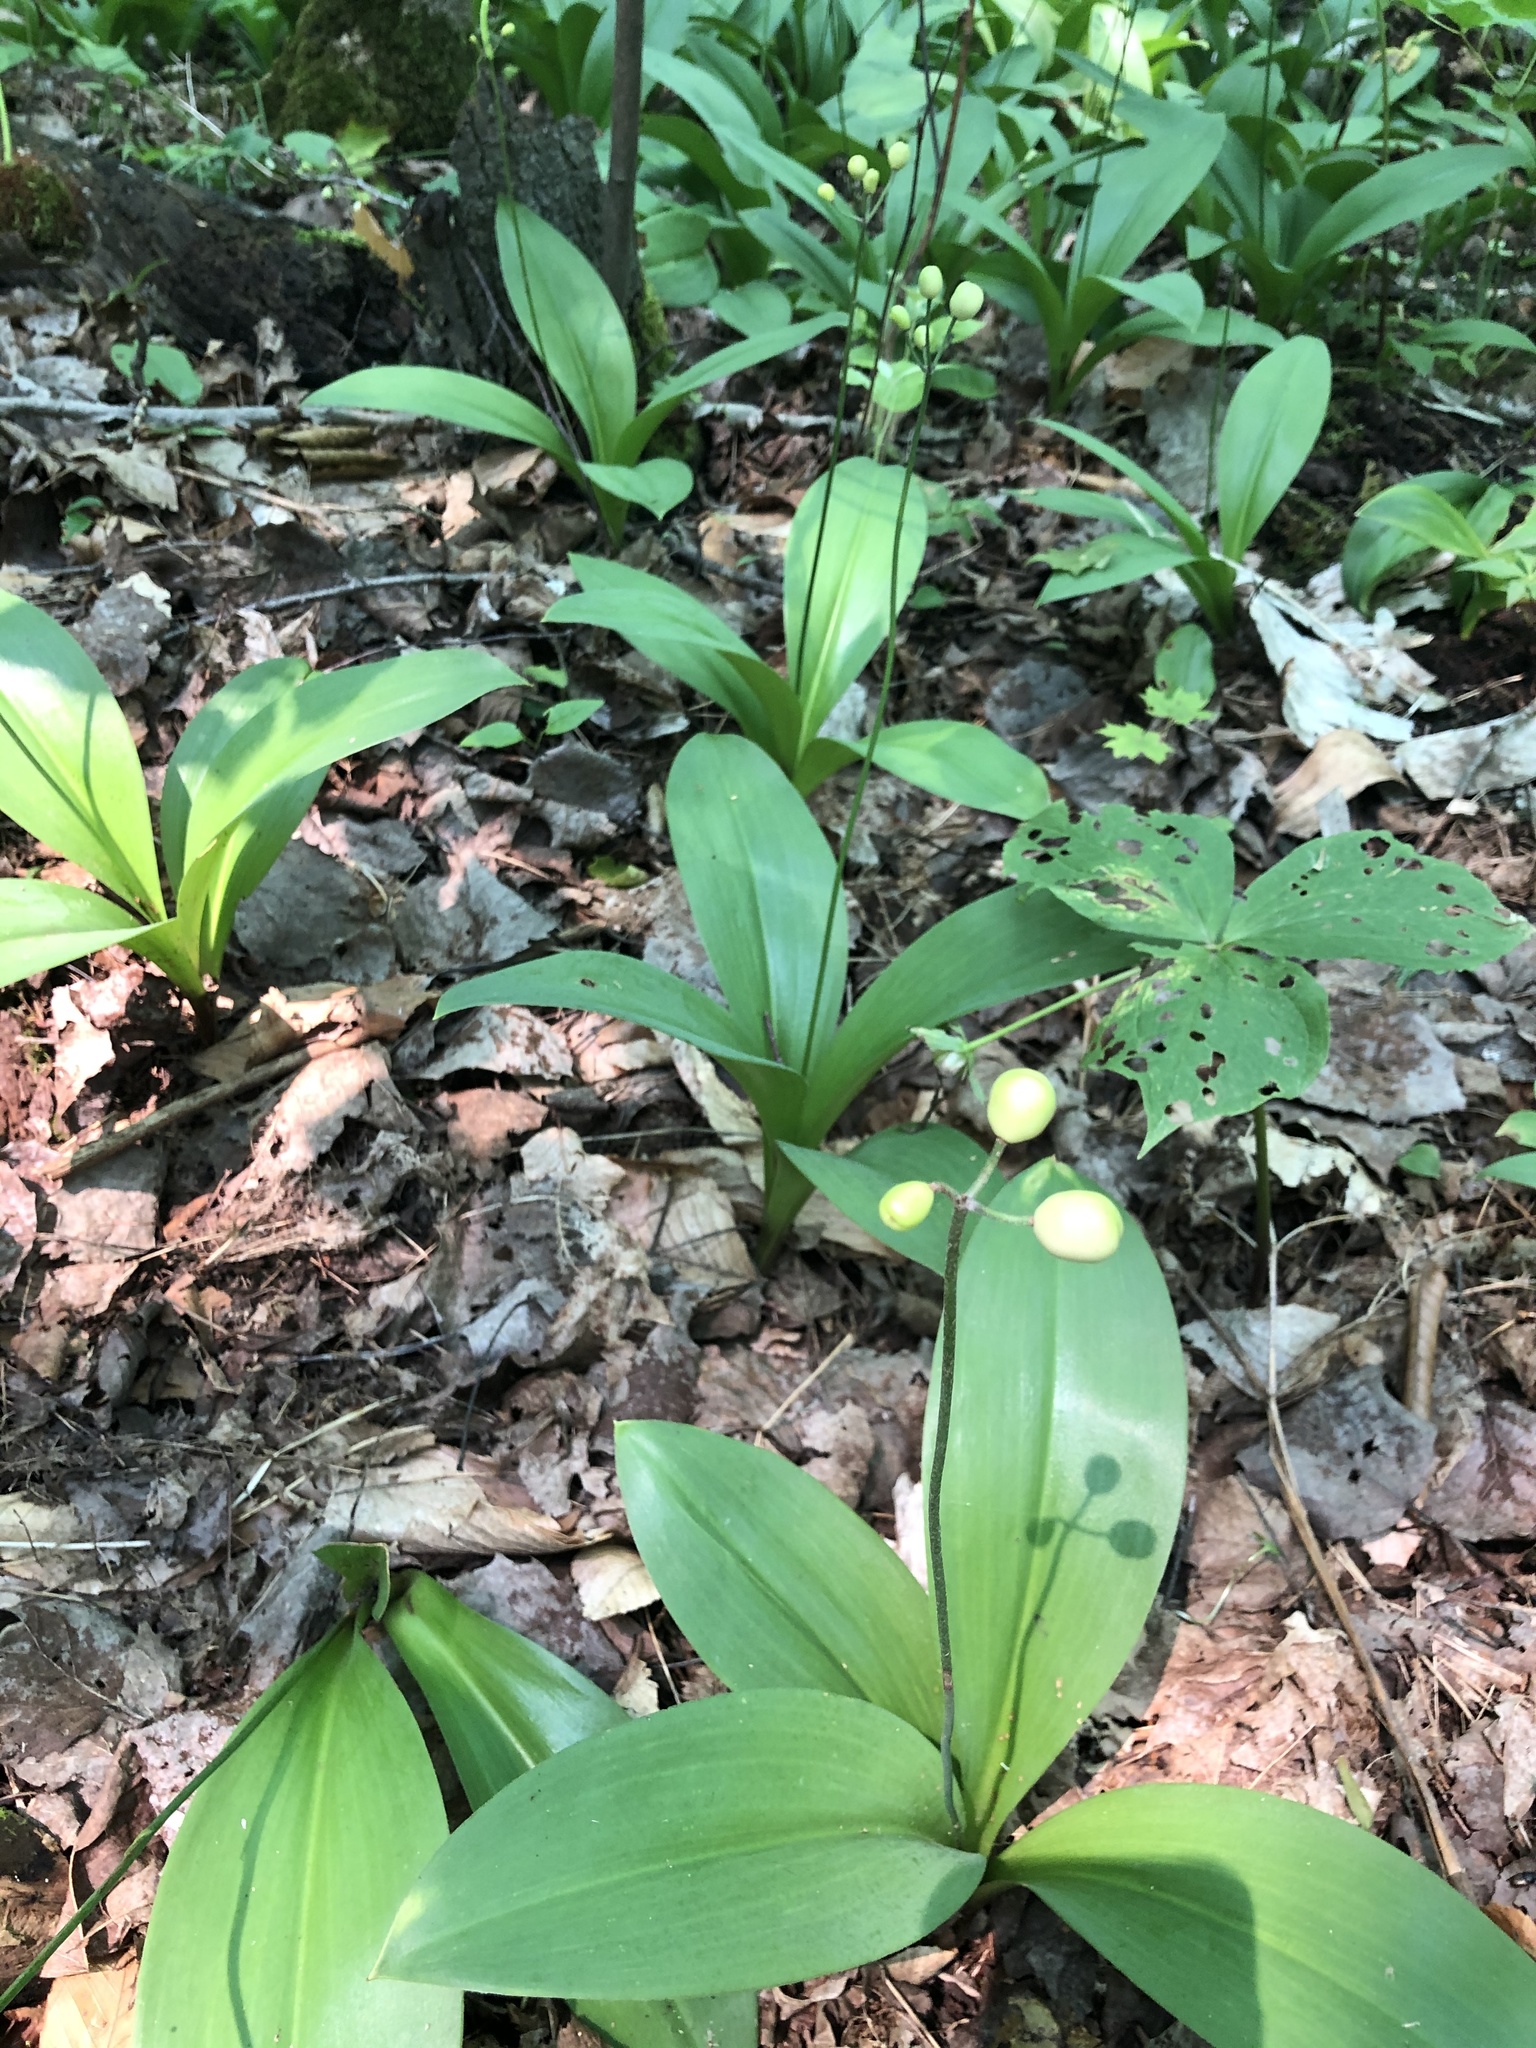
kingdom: Plantae
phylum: Tracheophyta
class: Liliopsida
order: Liliales
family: Liliaceae
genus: Clintonia
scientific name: Clintonia borealis
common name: Yellow clintonia
